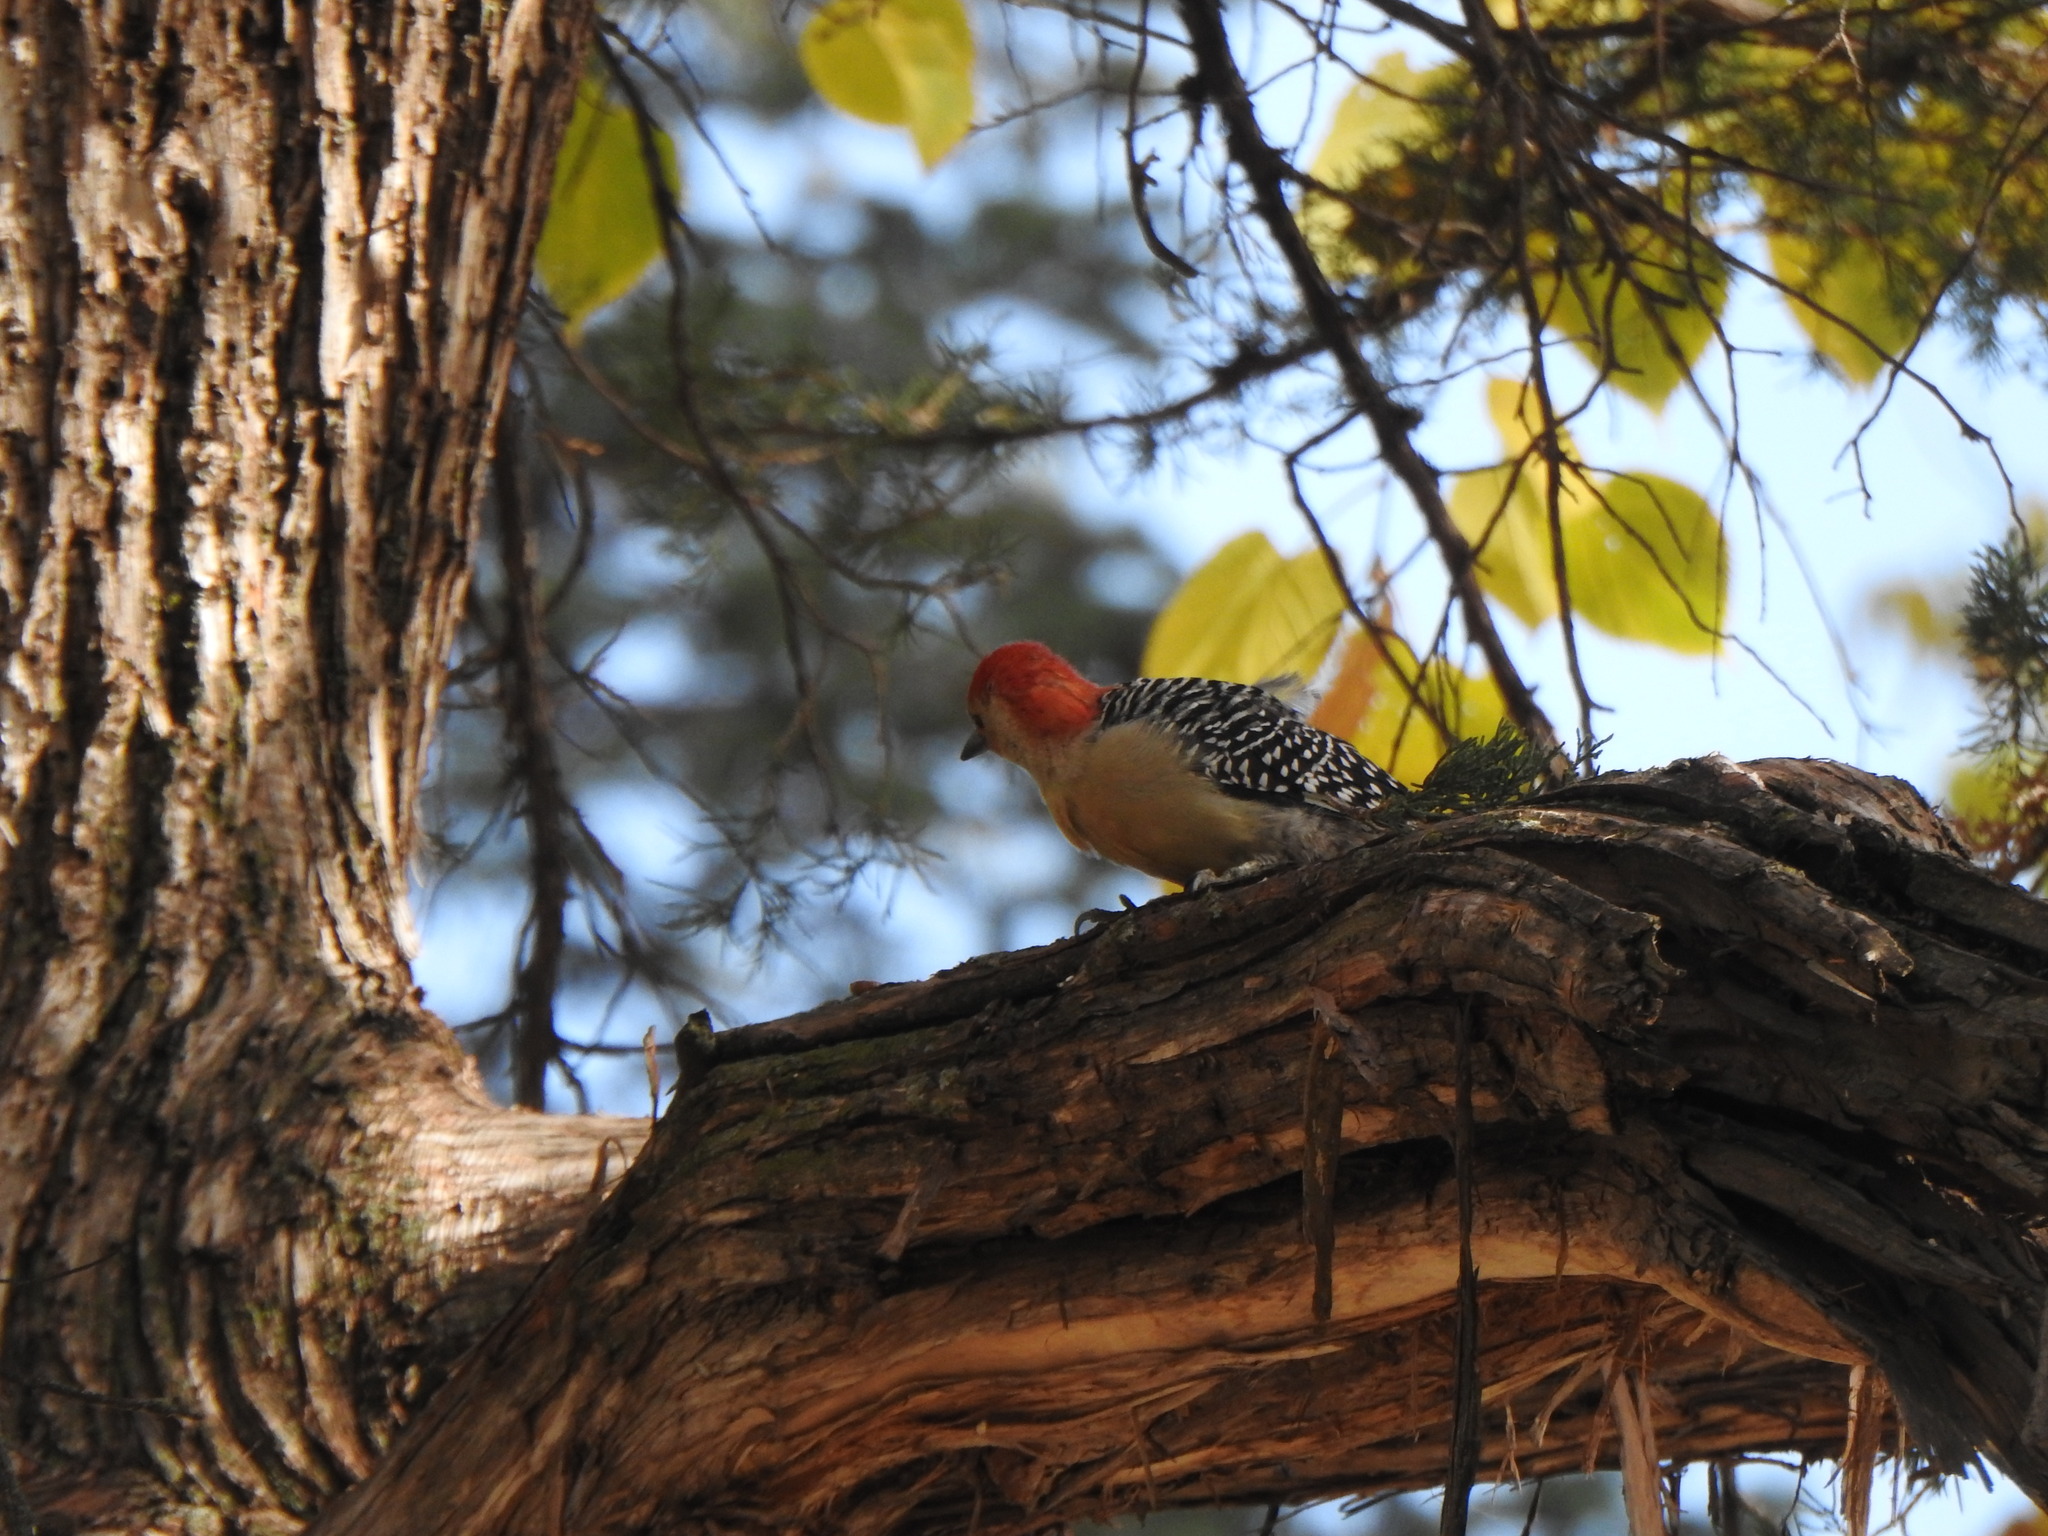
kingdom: Animalia
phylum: Chordata
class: Aves
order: Piciformes
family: Picidae
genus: Melanerpes
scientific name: Melanerpes carolinus
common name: Red-bellied woodpecker
